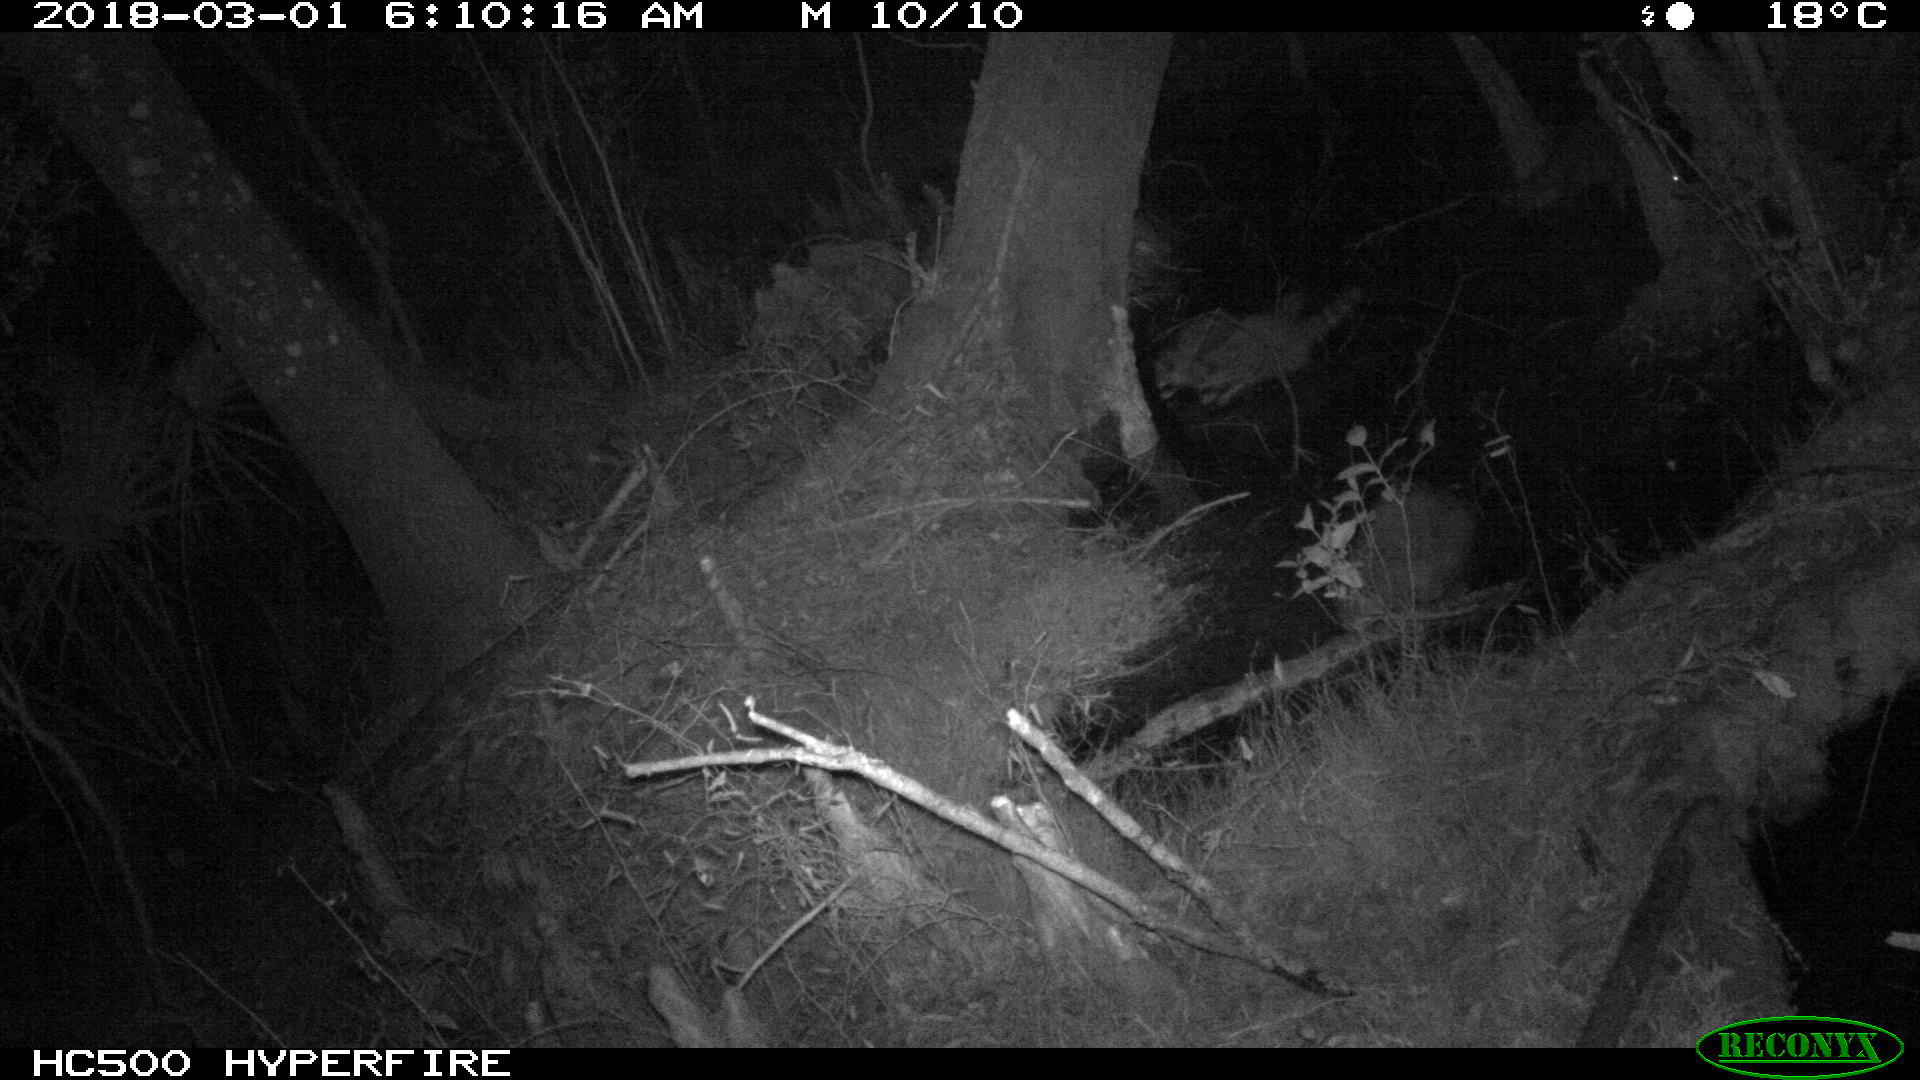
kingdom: Animalia
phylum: Chordata
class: Mammalia
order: Carnivora
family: Procyonidae
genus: Procyon
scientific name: Procyon lotor
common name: Raccoon
